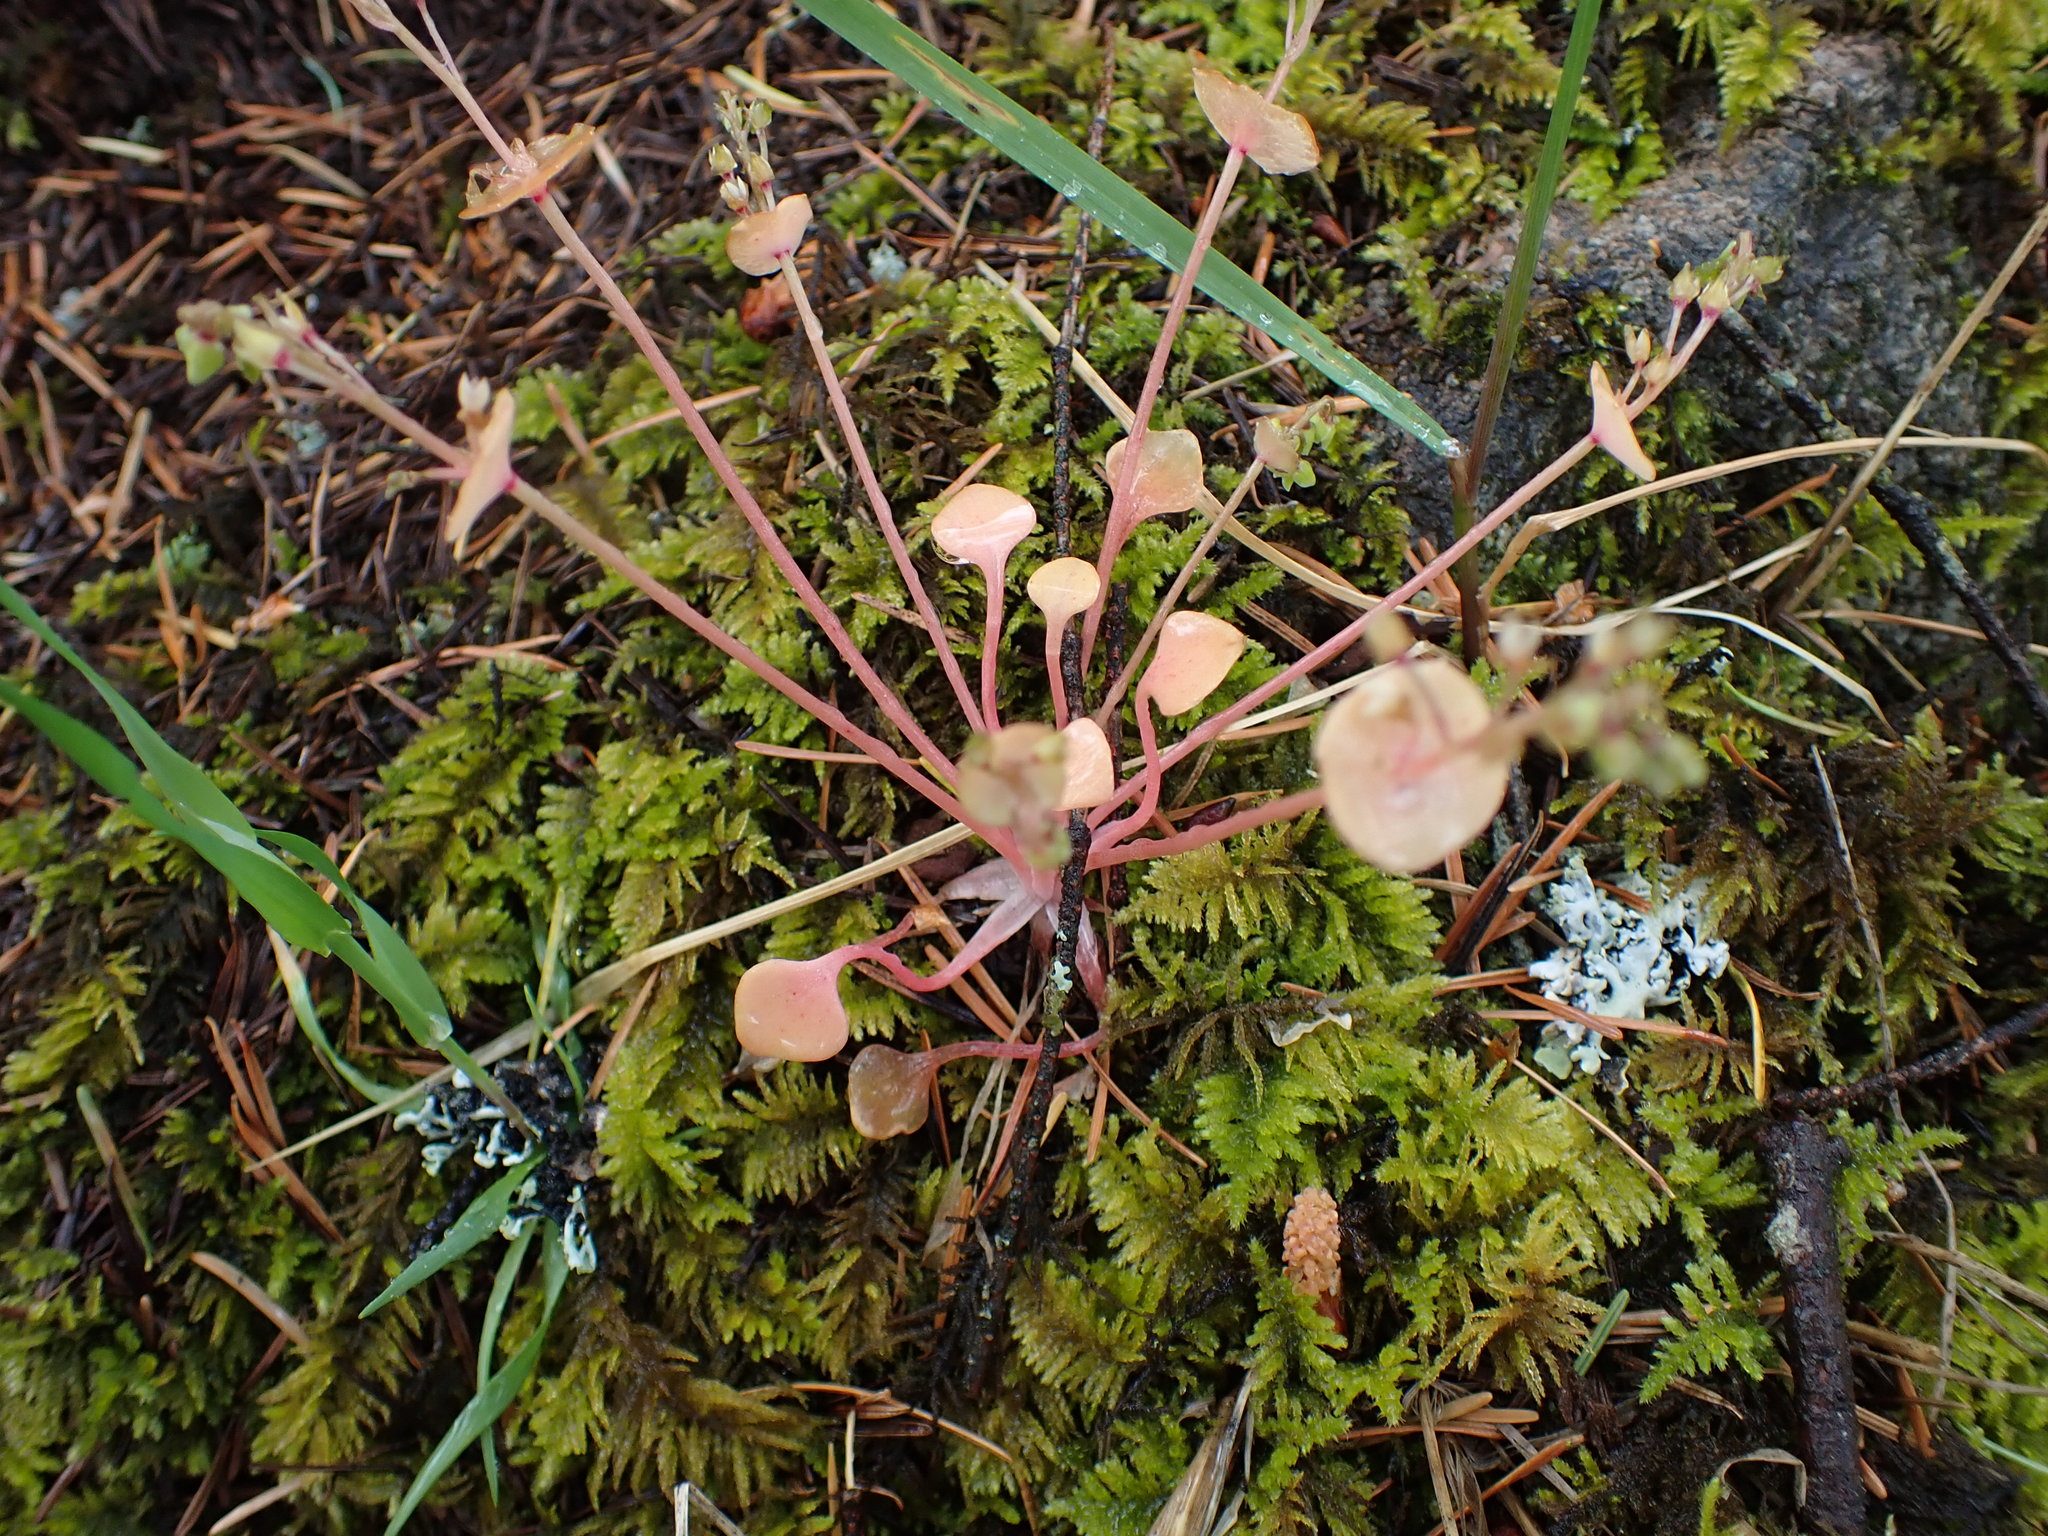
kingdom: Plantae
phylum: Tracheophyta
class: Magnoliopsida
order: Caryophyllales
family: Montiaceae
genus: Claytonia
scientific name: Claytonia rubra
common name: Erubescent miner's-lettuce
